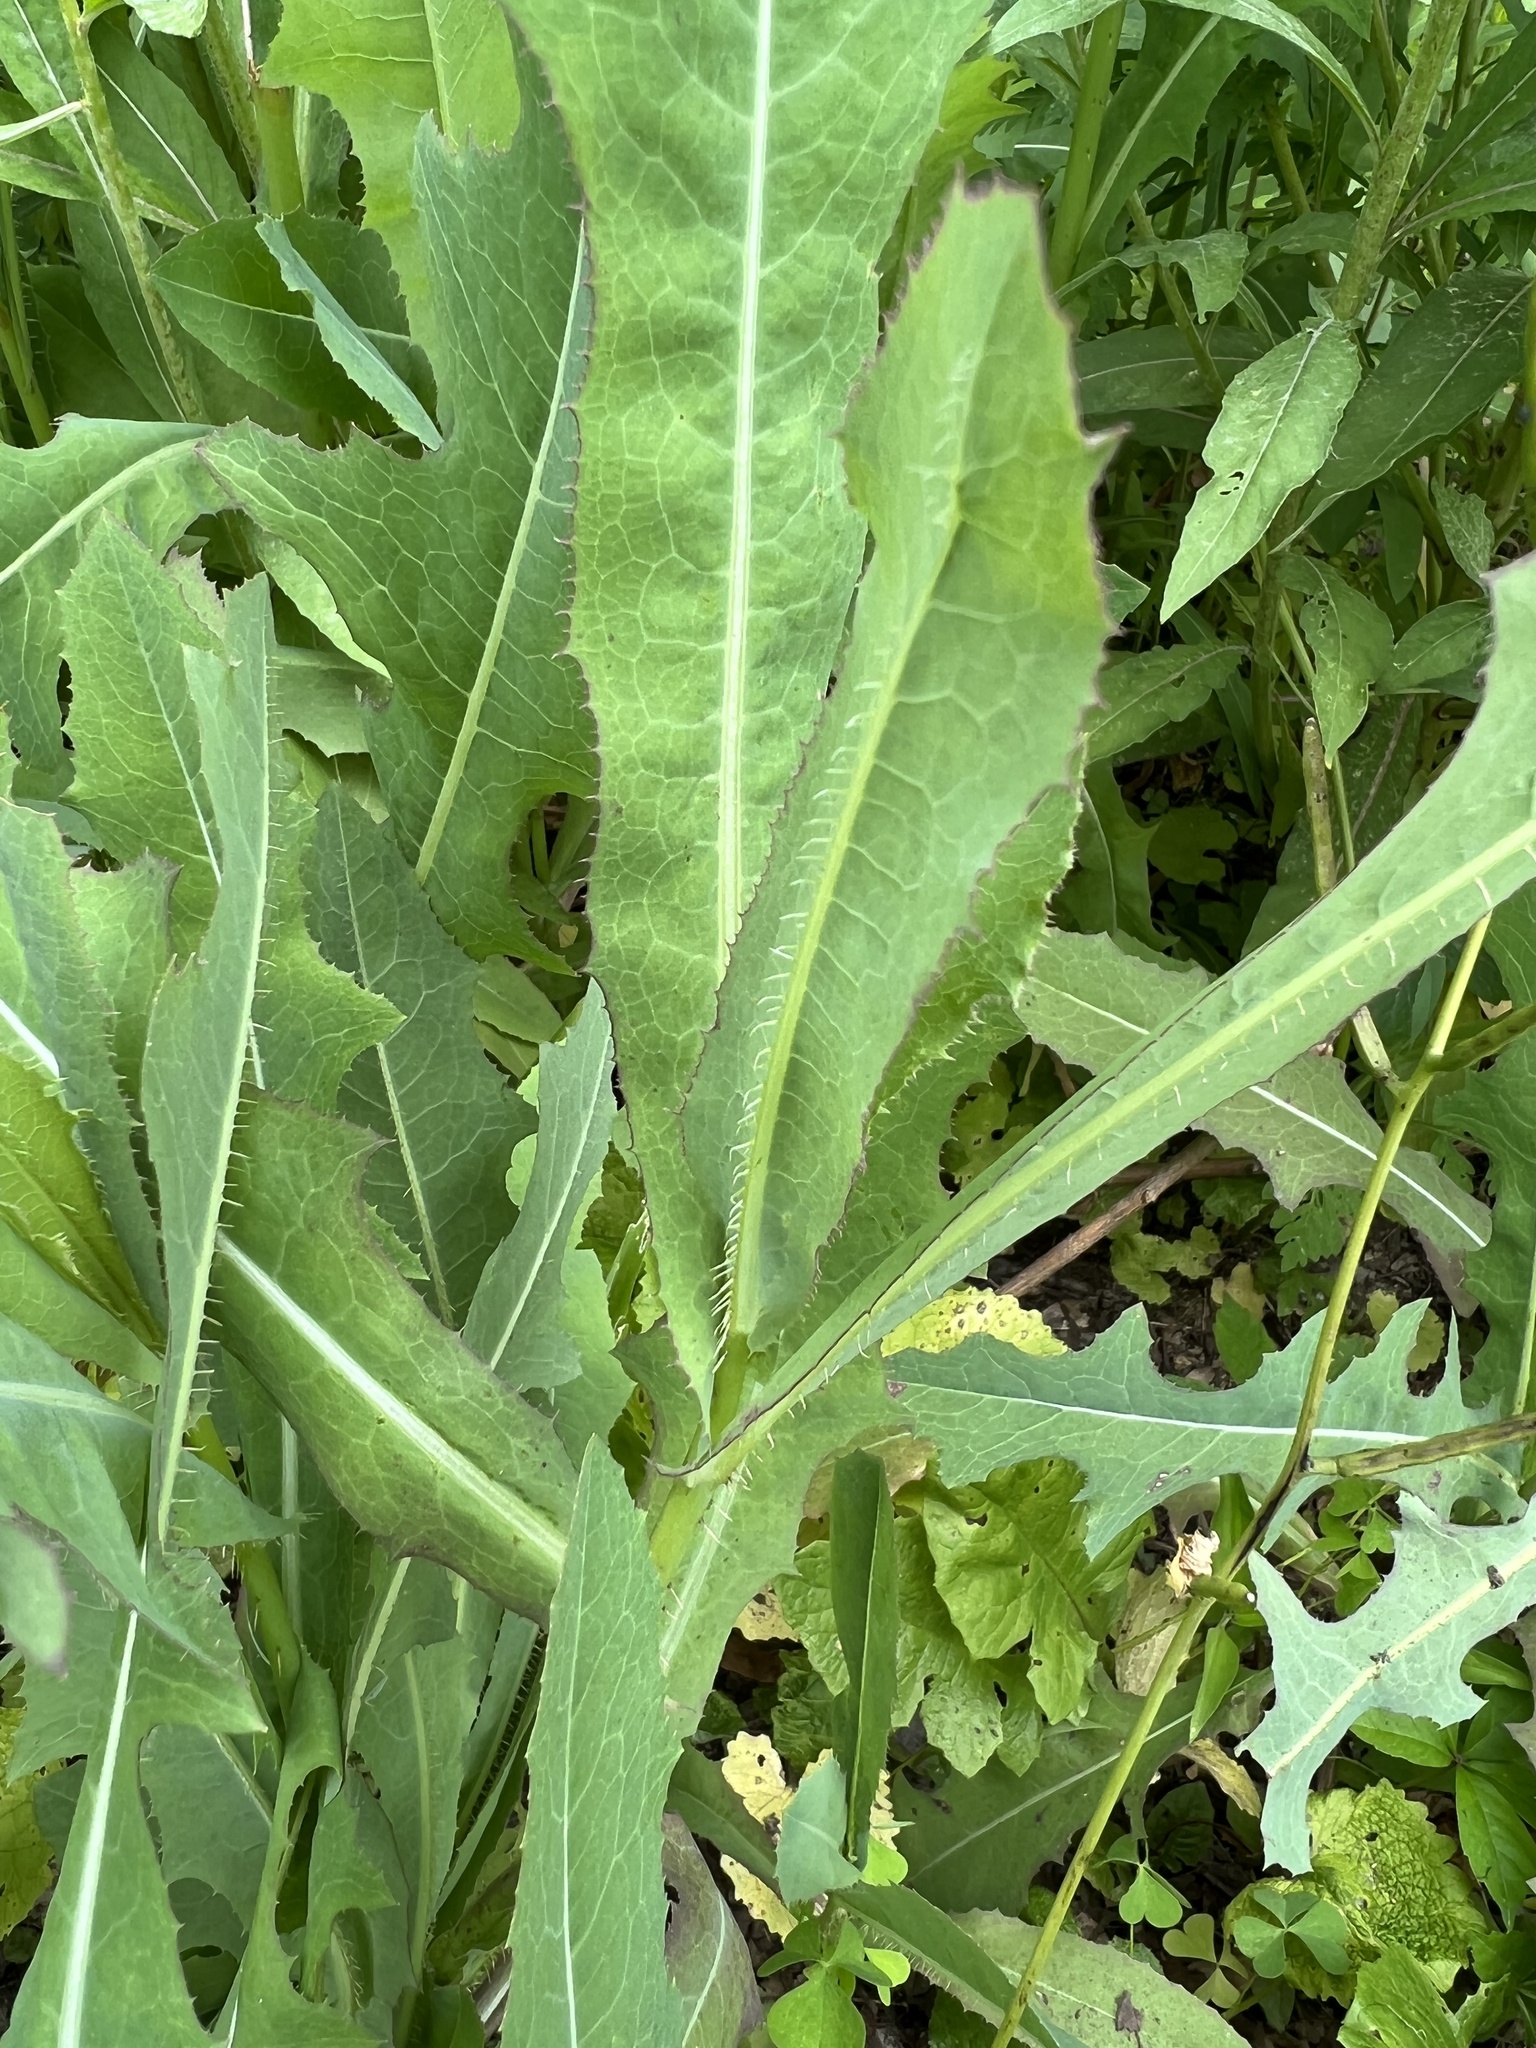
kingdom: Plantae
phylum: Tracheophyta
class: Magnoliopsida
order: Asterales
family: Asteraceae
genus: Lactuca
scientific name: Lactuca serriola
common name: Prickly lettuce
